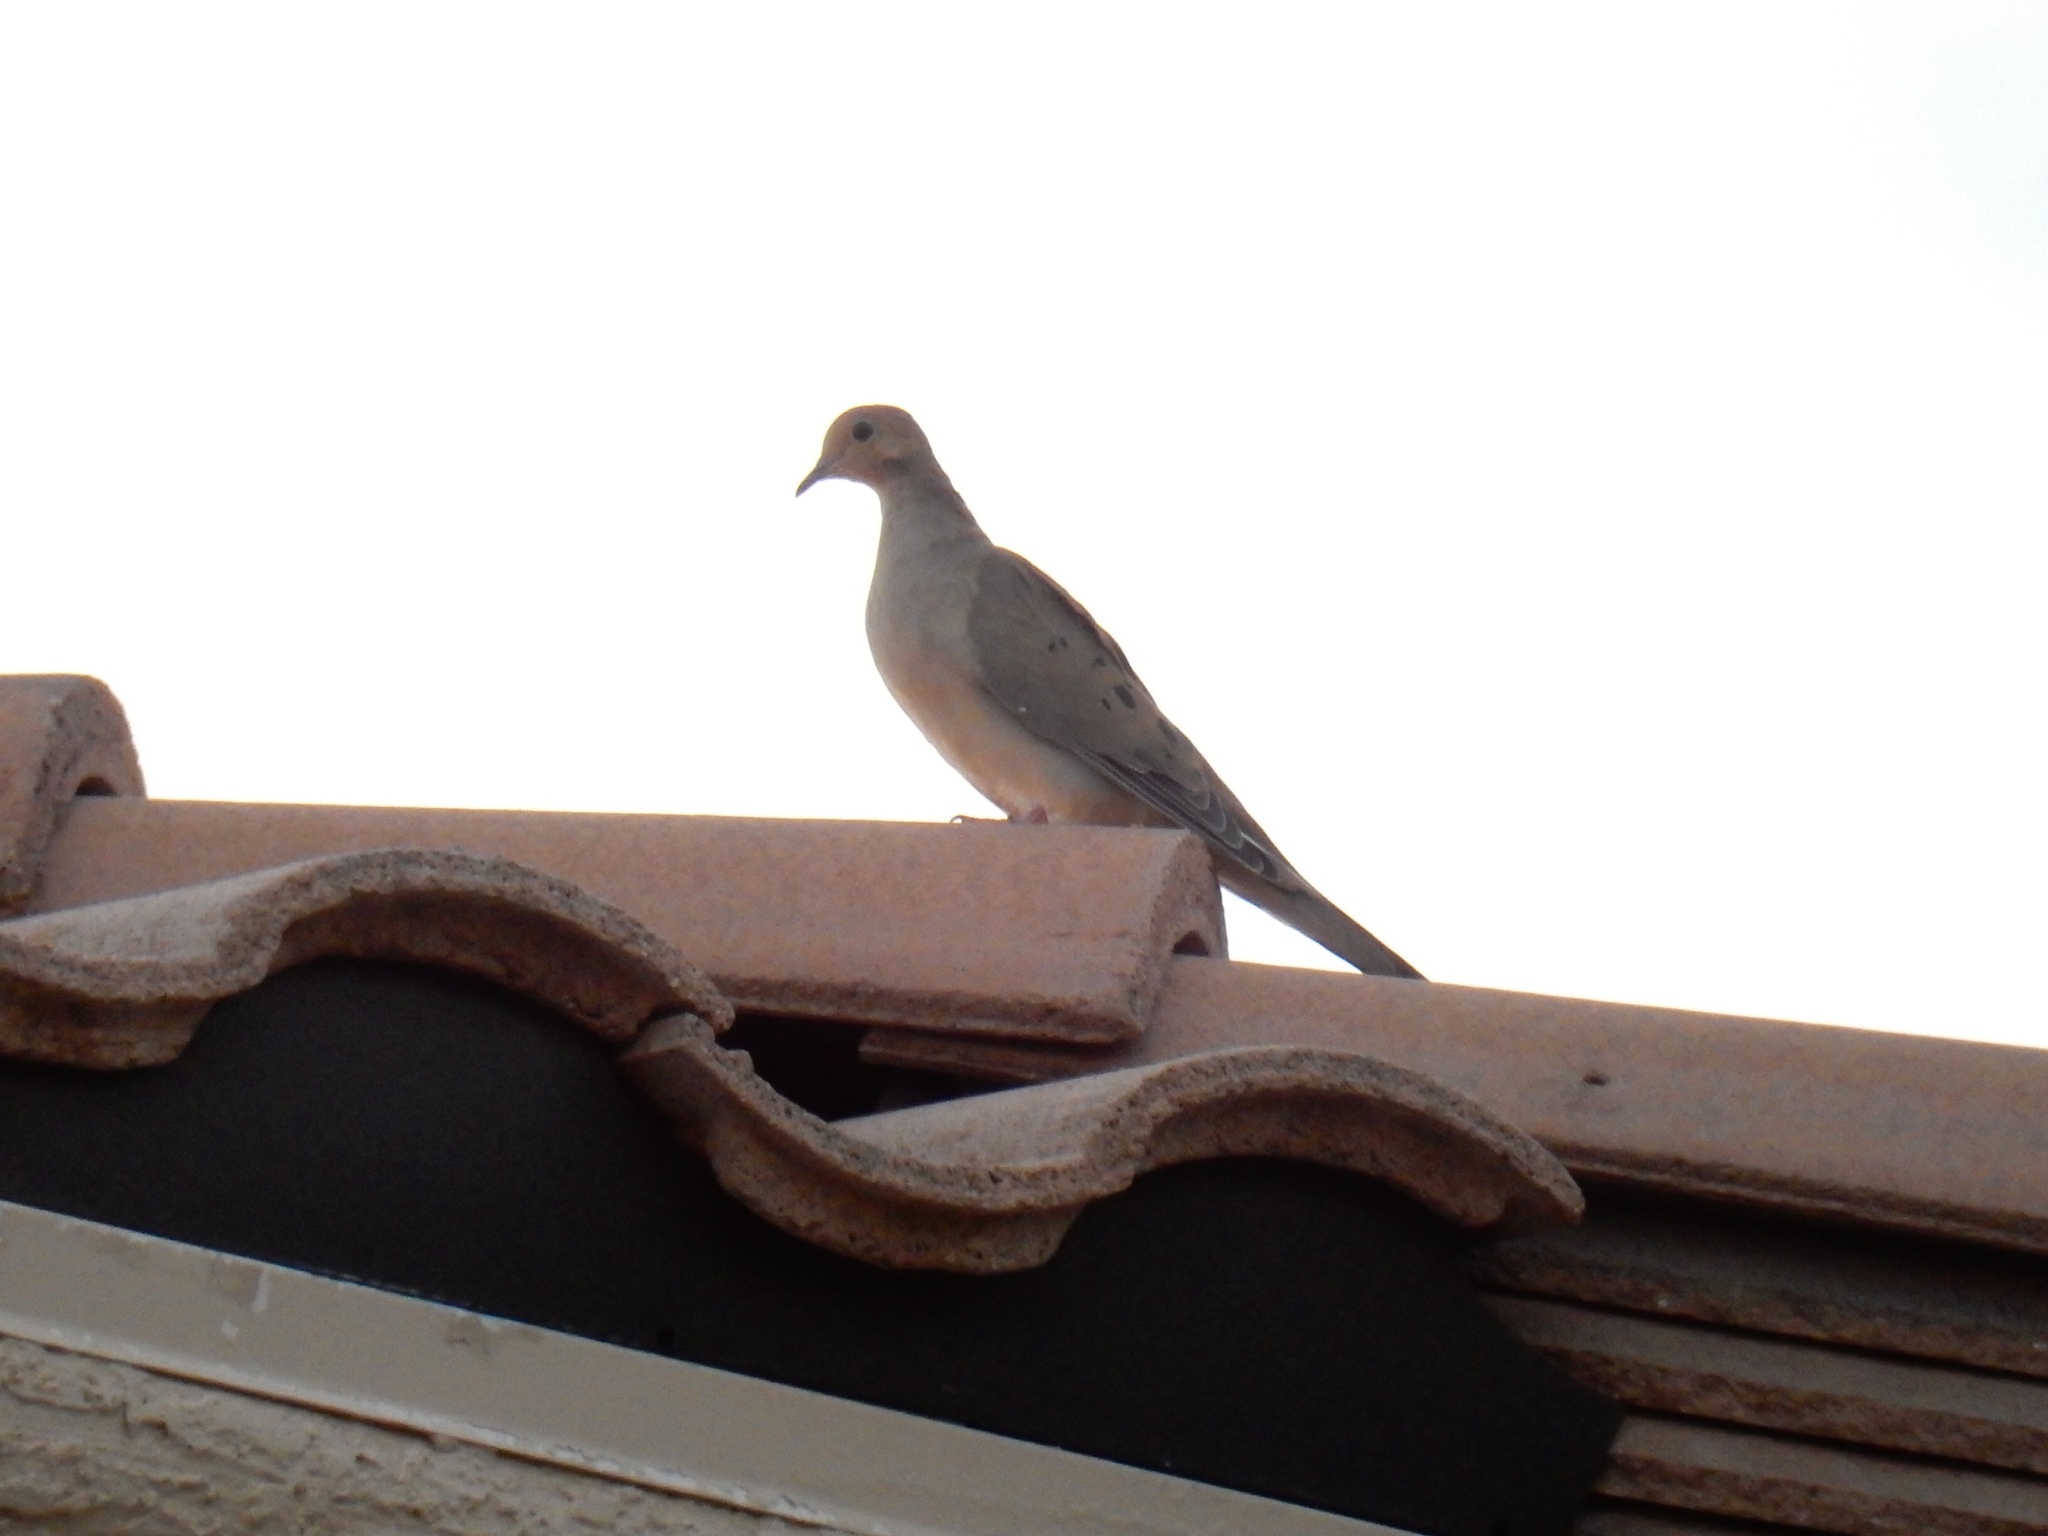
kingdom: Animalia
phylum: Chordata
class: Aves
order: Columbiformes
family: Columbidae
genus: Zenaida
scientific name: Zenaida macroura
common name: Mourning dove
